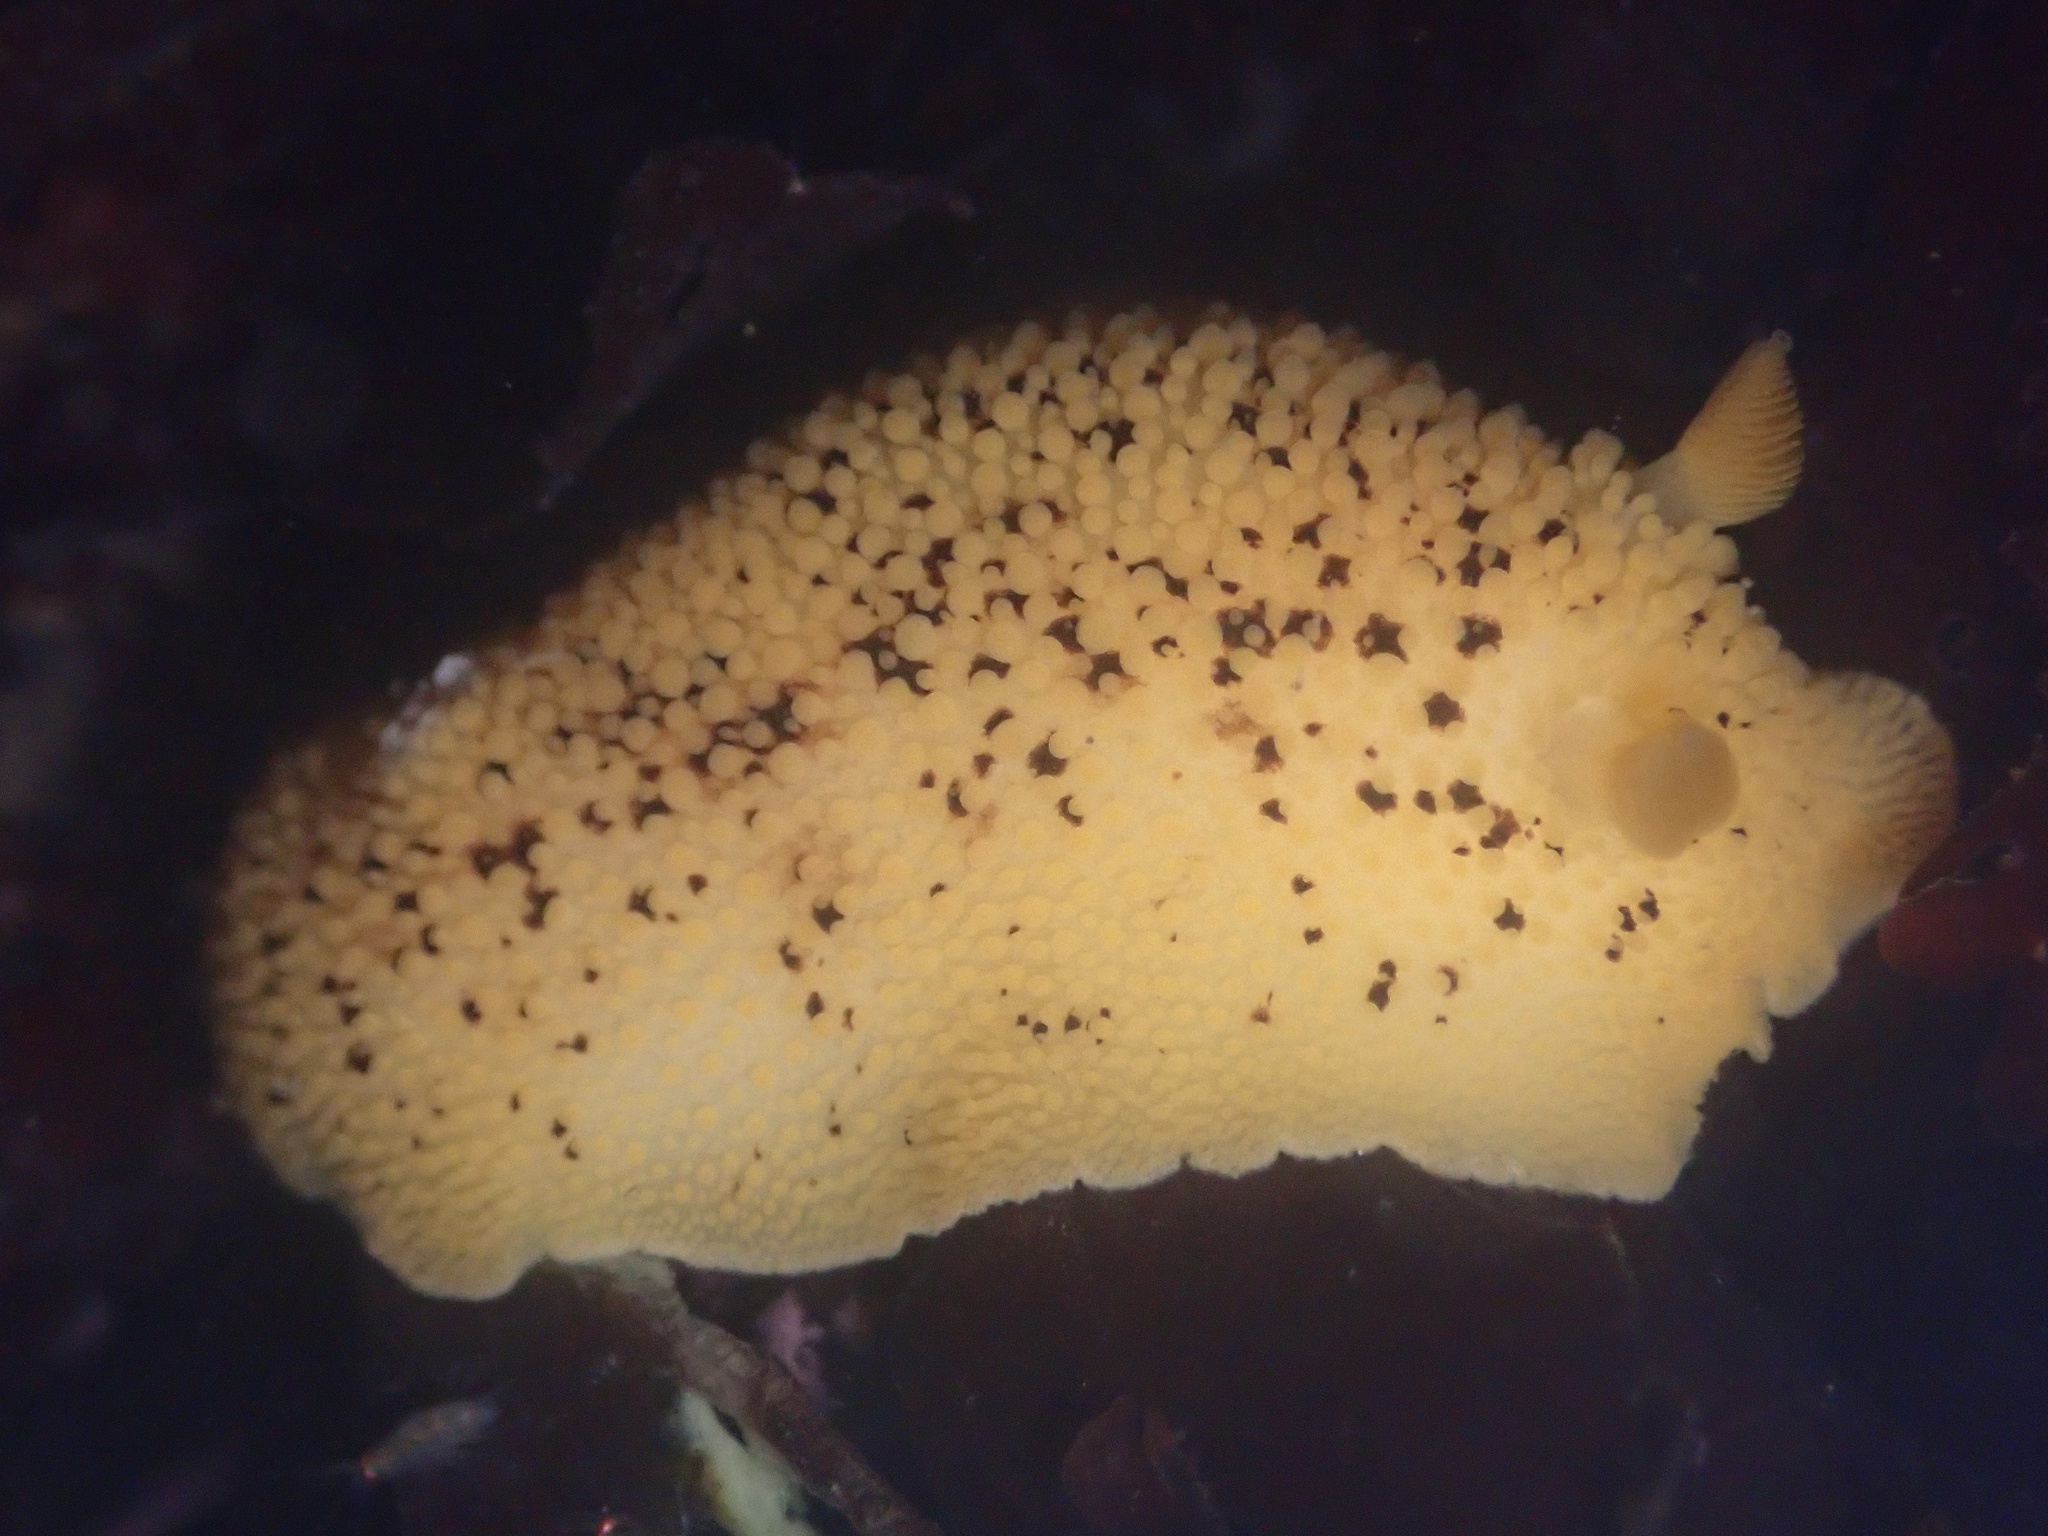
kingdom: Animalia
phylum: Mollusca
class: Gastropoda
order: Nudibranchia
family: Discodorididae
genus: Peltodoris
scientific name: Peltodoris nobilis
